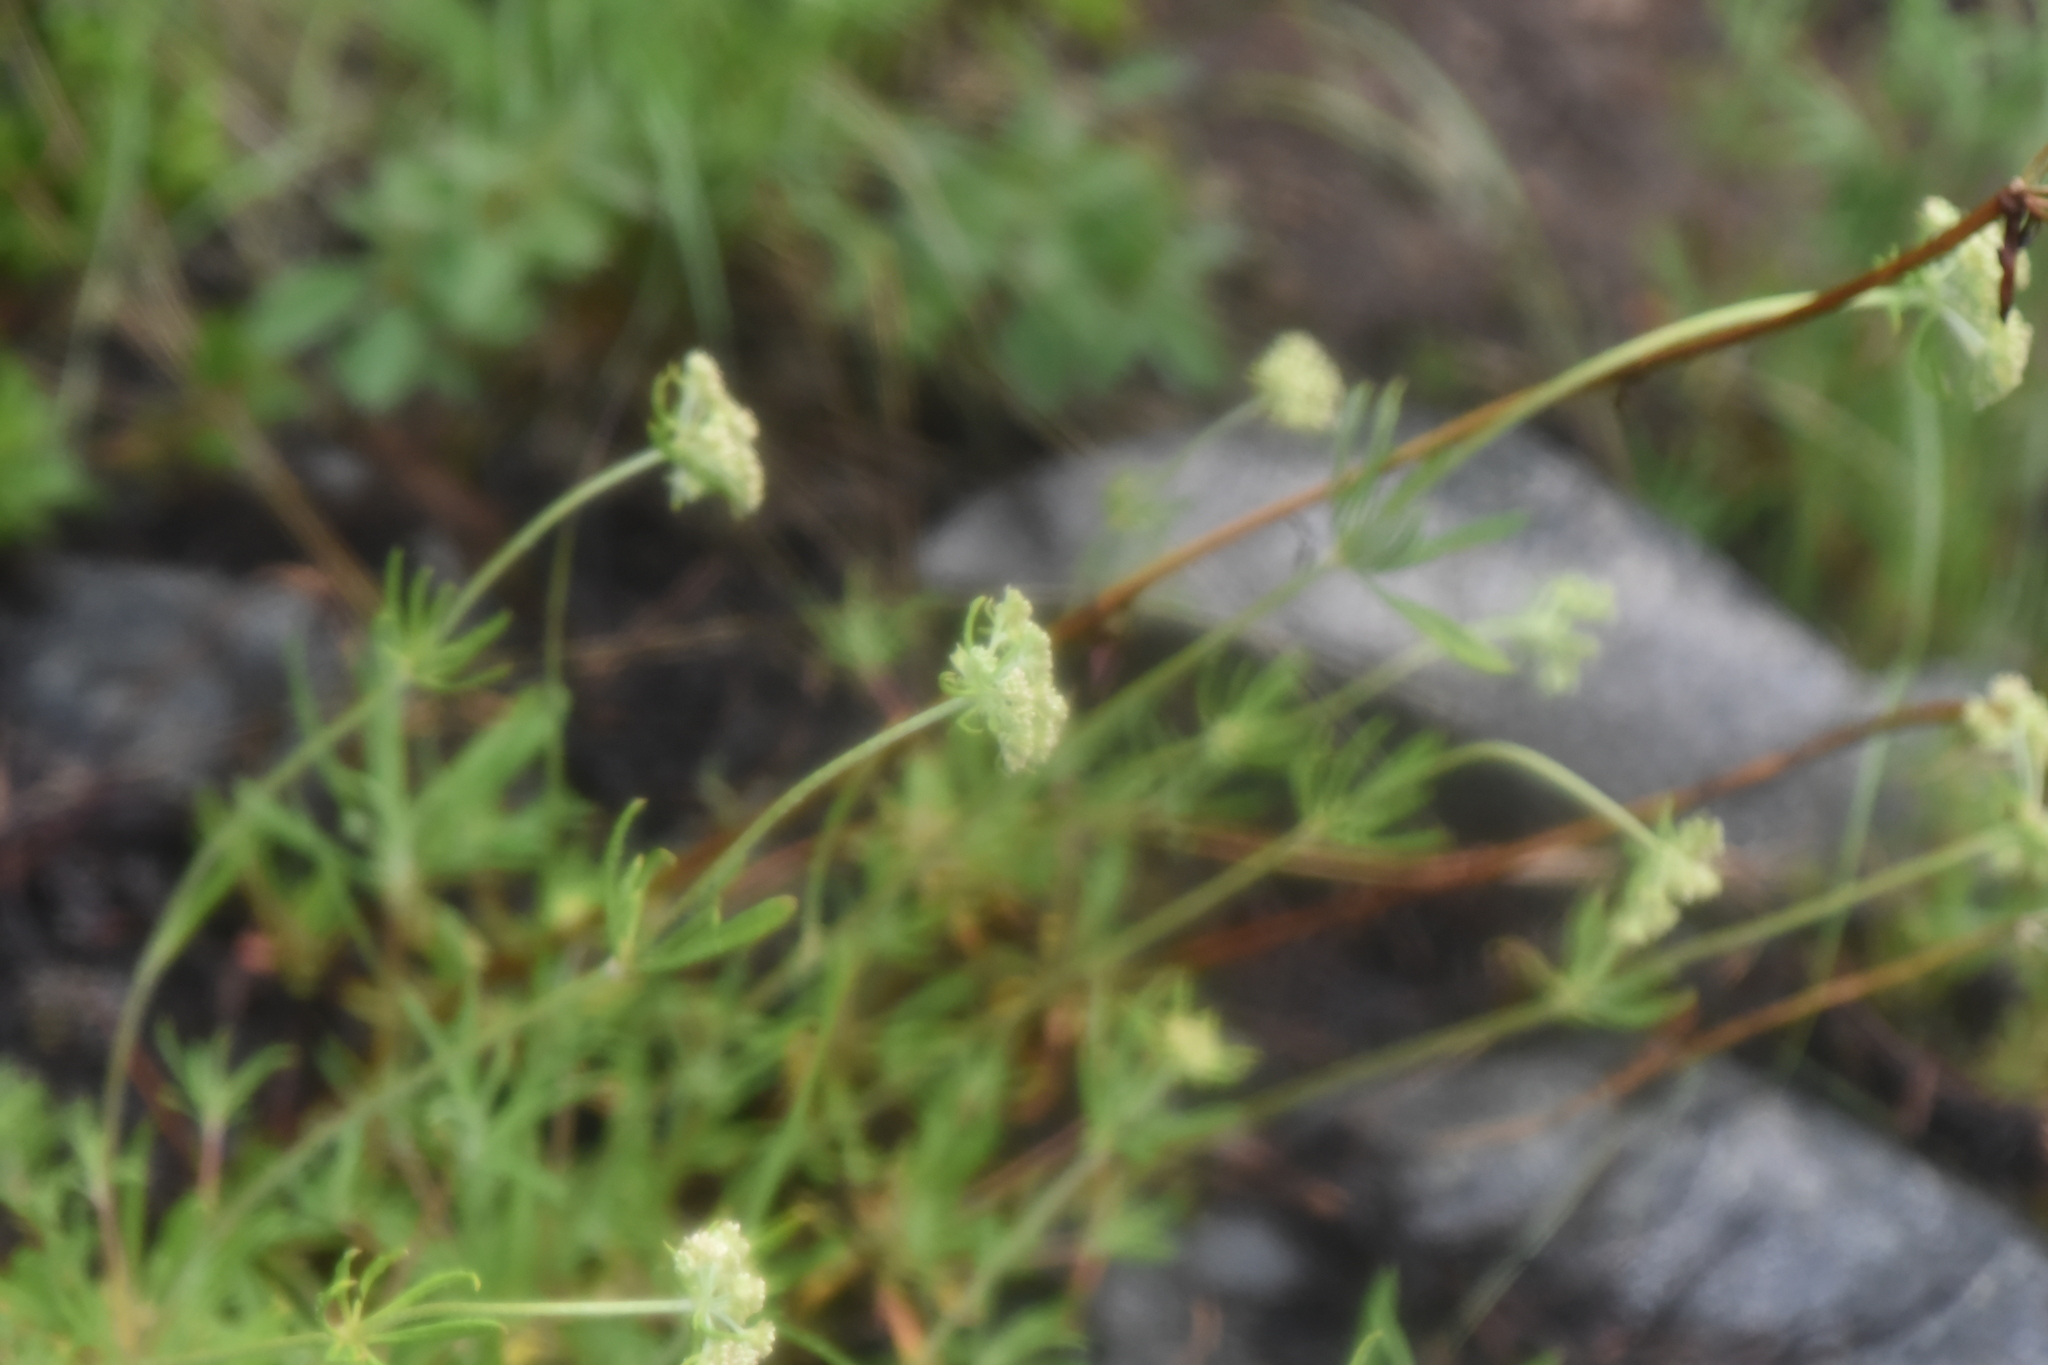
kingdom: Plantae
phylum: Tracheophyta
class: Magnoliopsida
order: Caryophyllales
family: Polygonaceae
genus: Eriogonum
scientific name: Eriogonum heracleoides
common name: Wyeth's buckwheat
